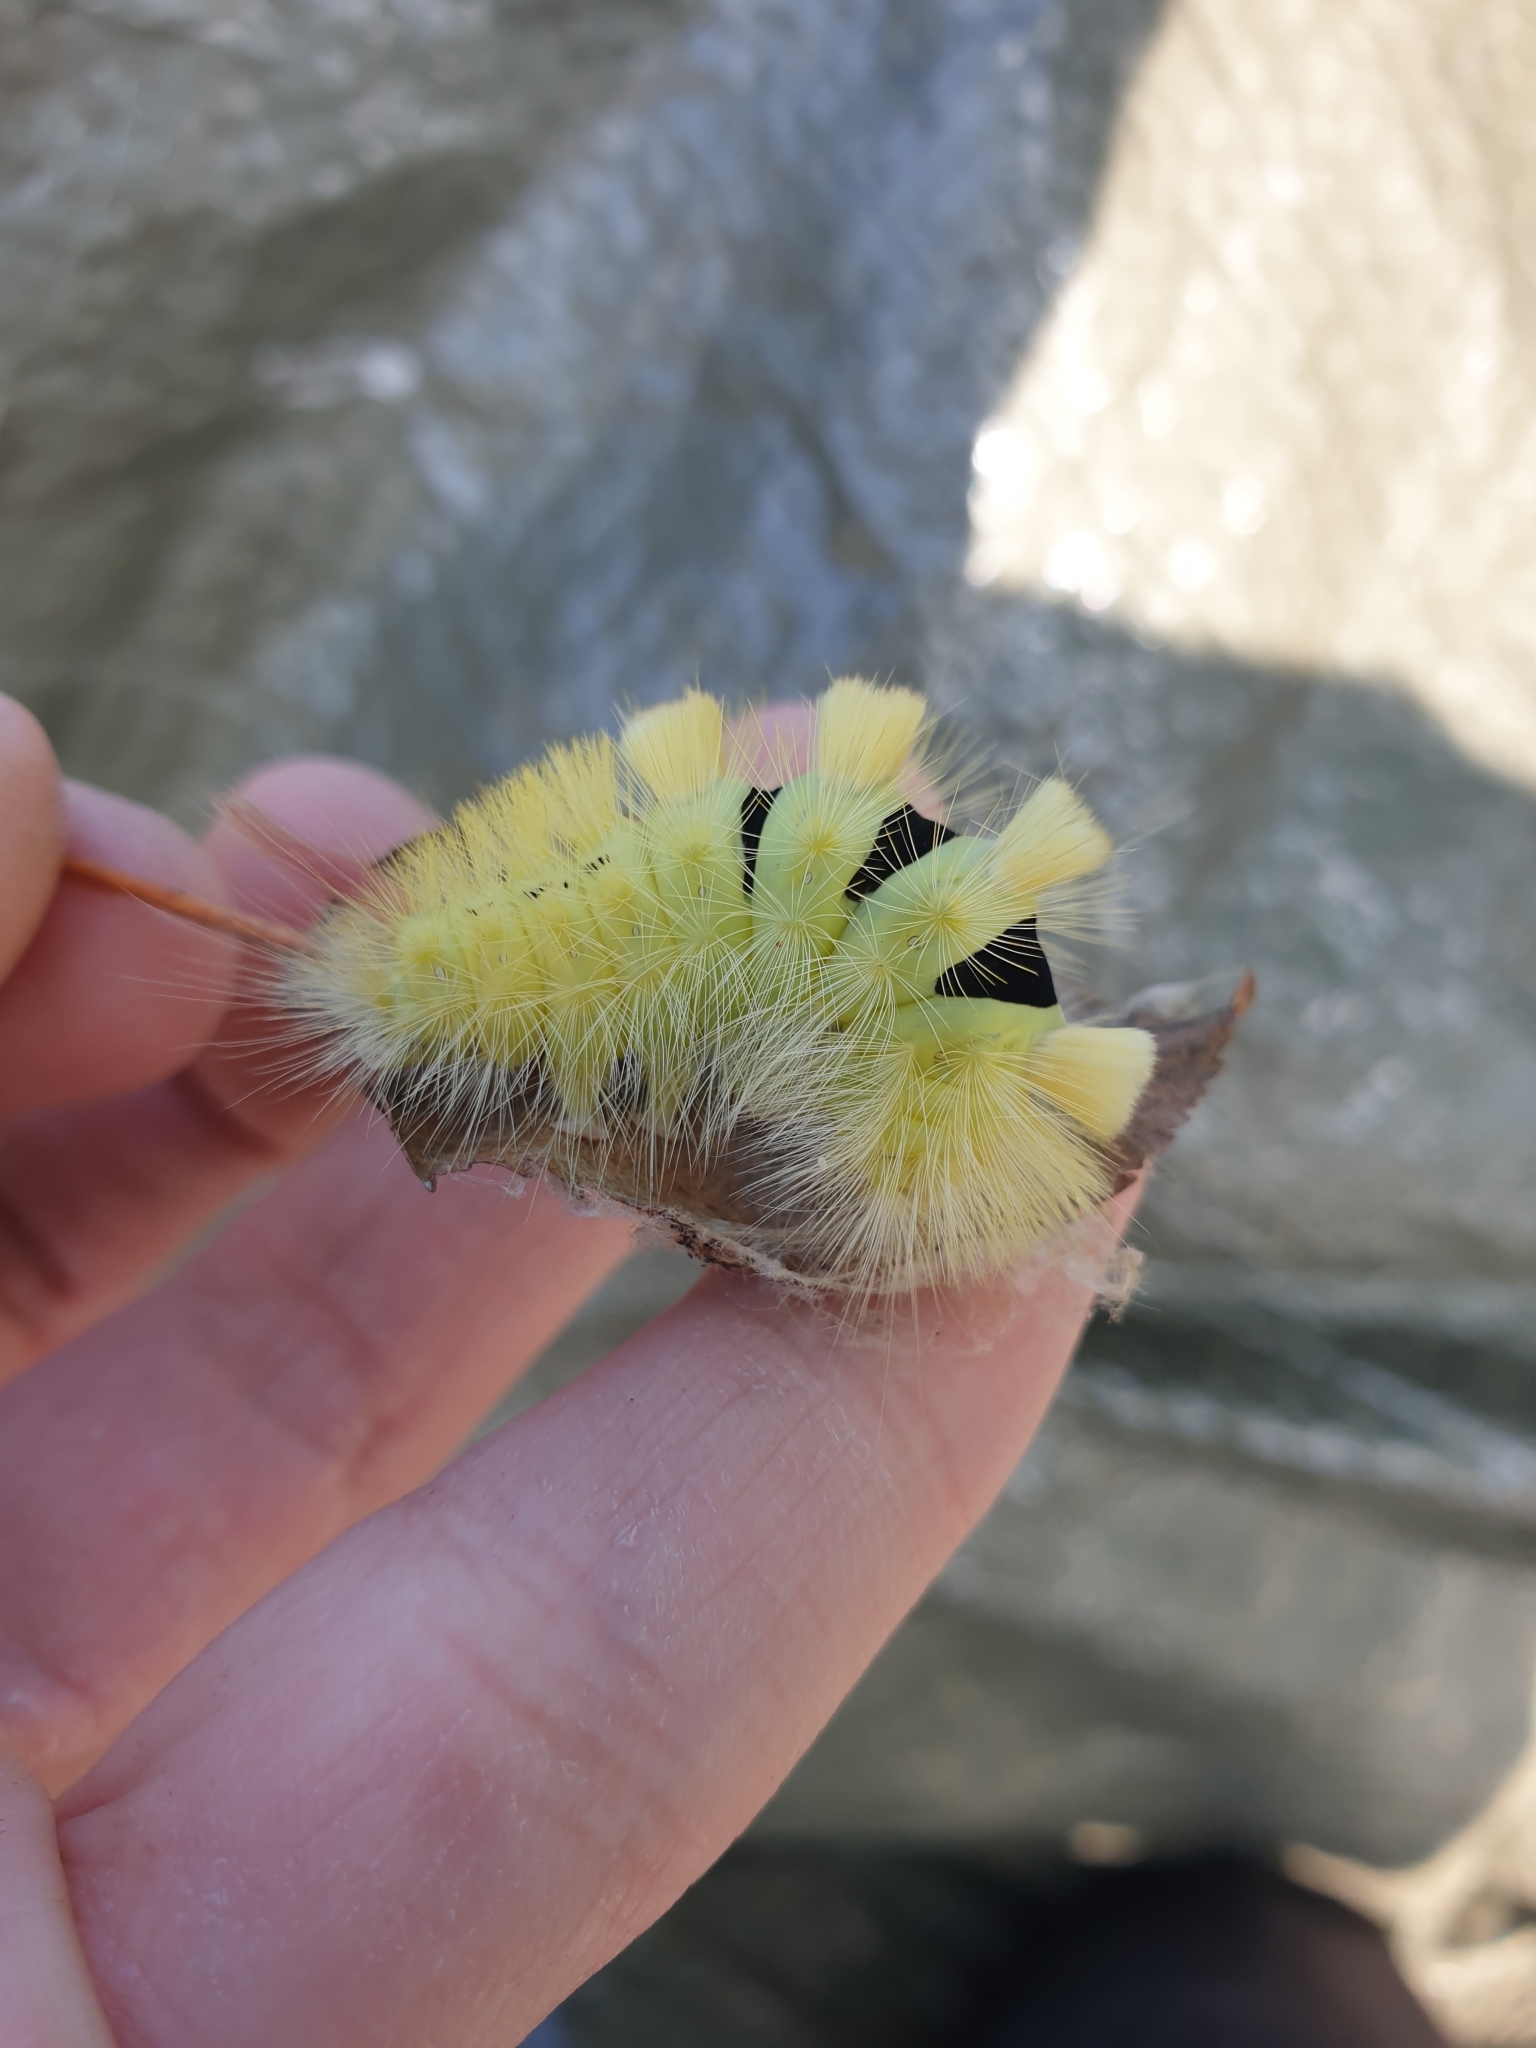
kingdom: Animalia
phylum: Arthropoda
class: Insecta
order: Lepidoptera
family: Erebidae
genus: Calliteara
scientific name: Calliteara pudibunda
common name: Pale tussock
